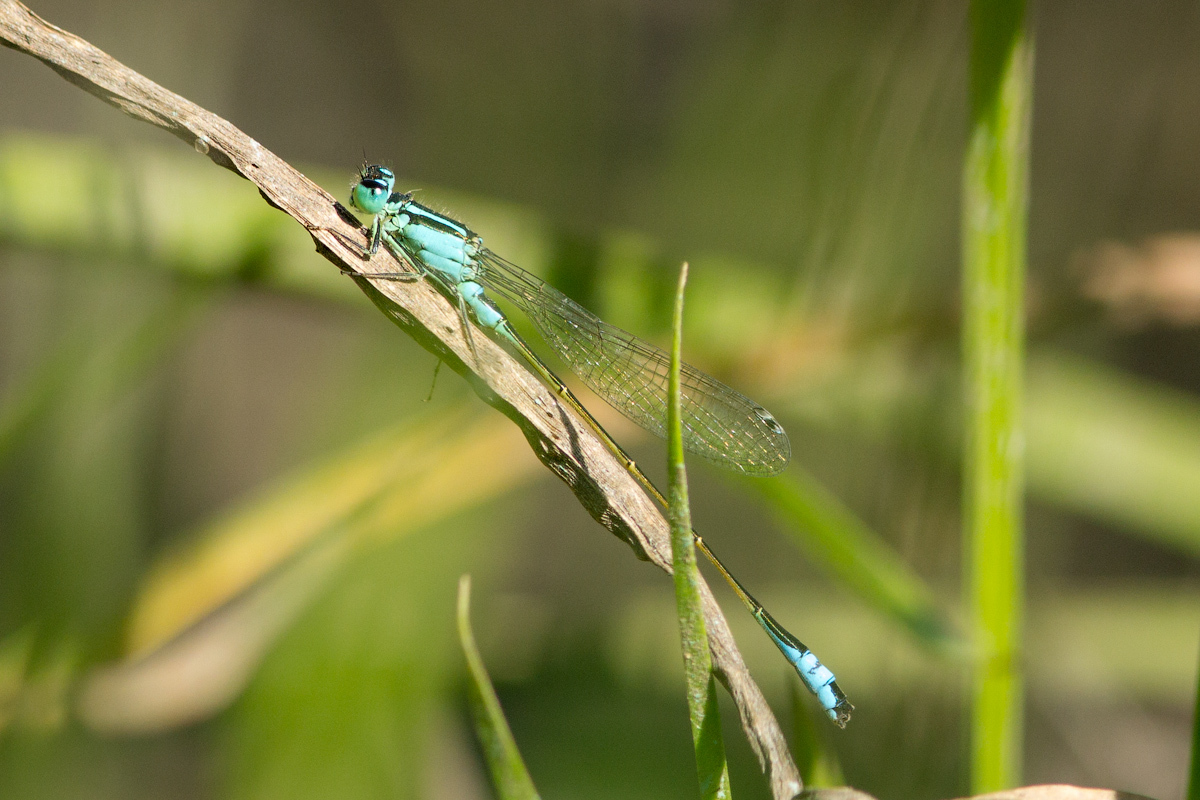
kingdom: Animalia
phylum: Arthropoda
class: Insecta
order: Odonata
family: Coenagrionidae
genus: Ischnura
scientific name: Ischnura elegans
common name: Blue-tailed damselfly
